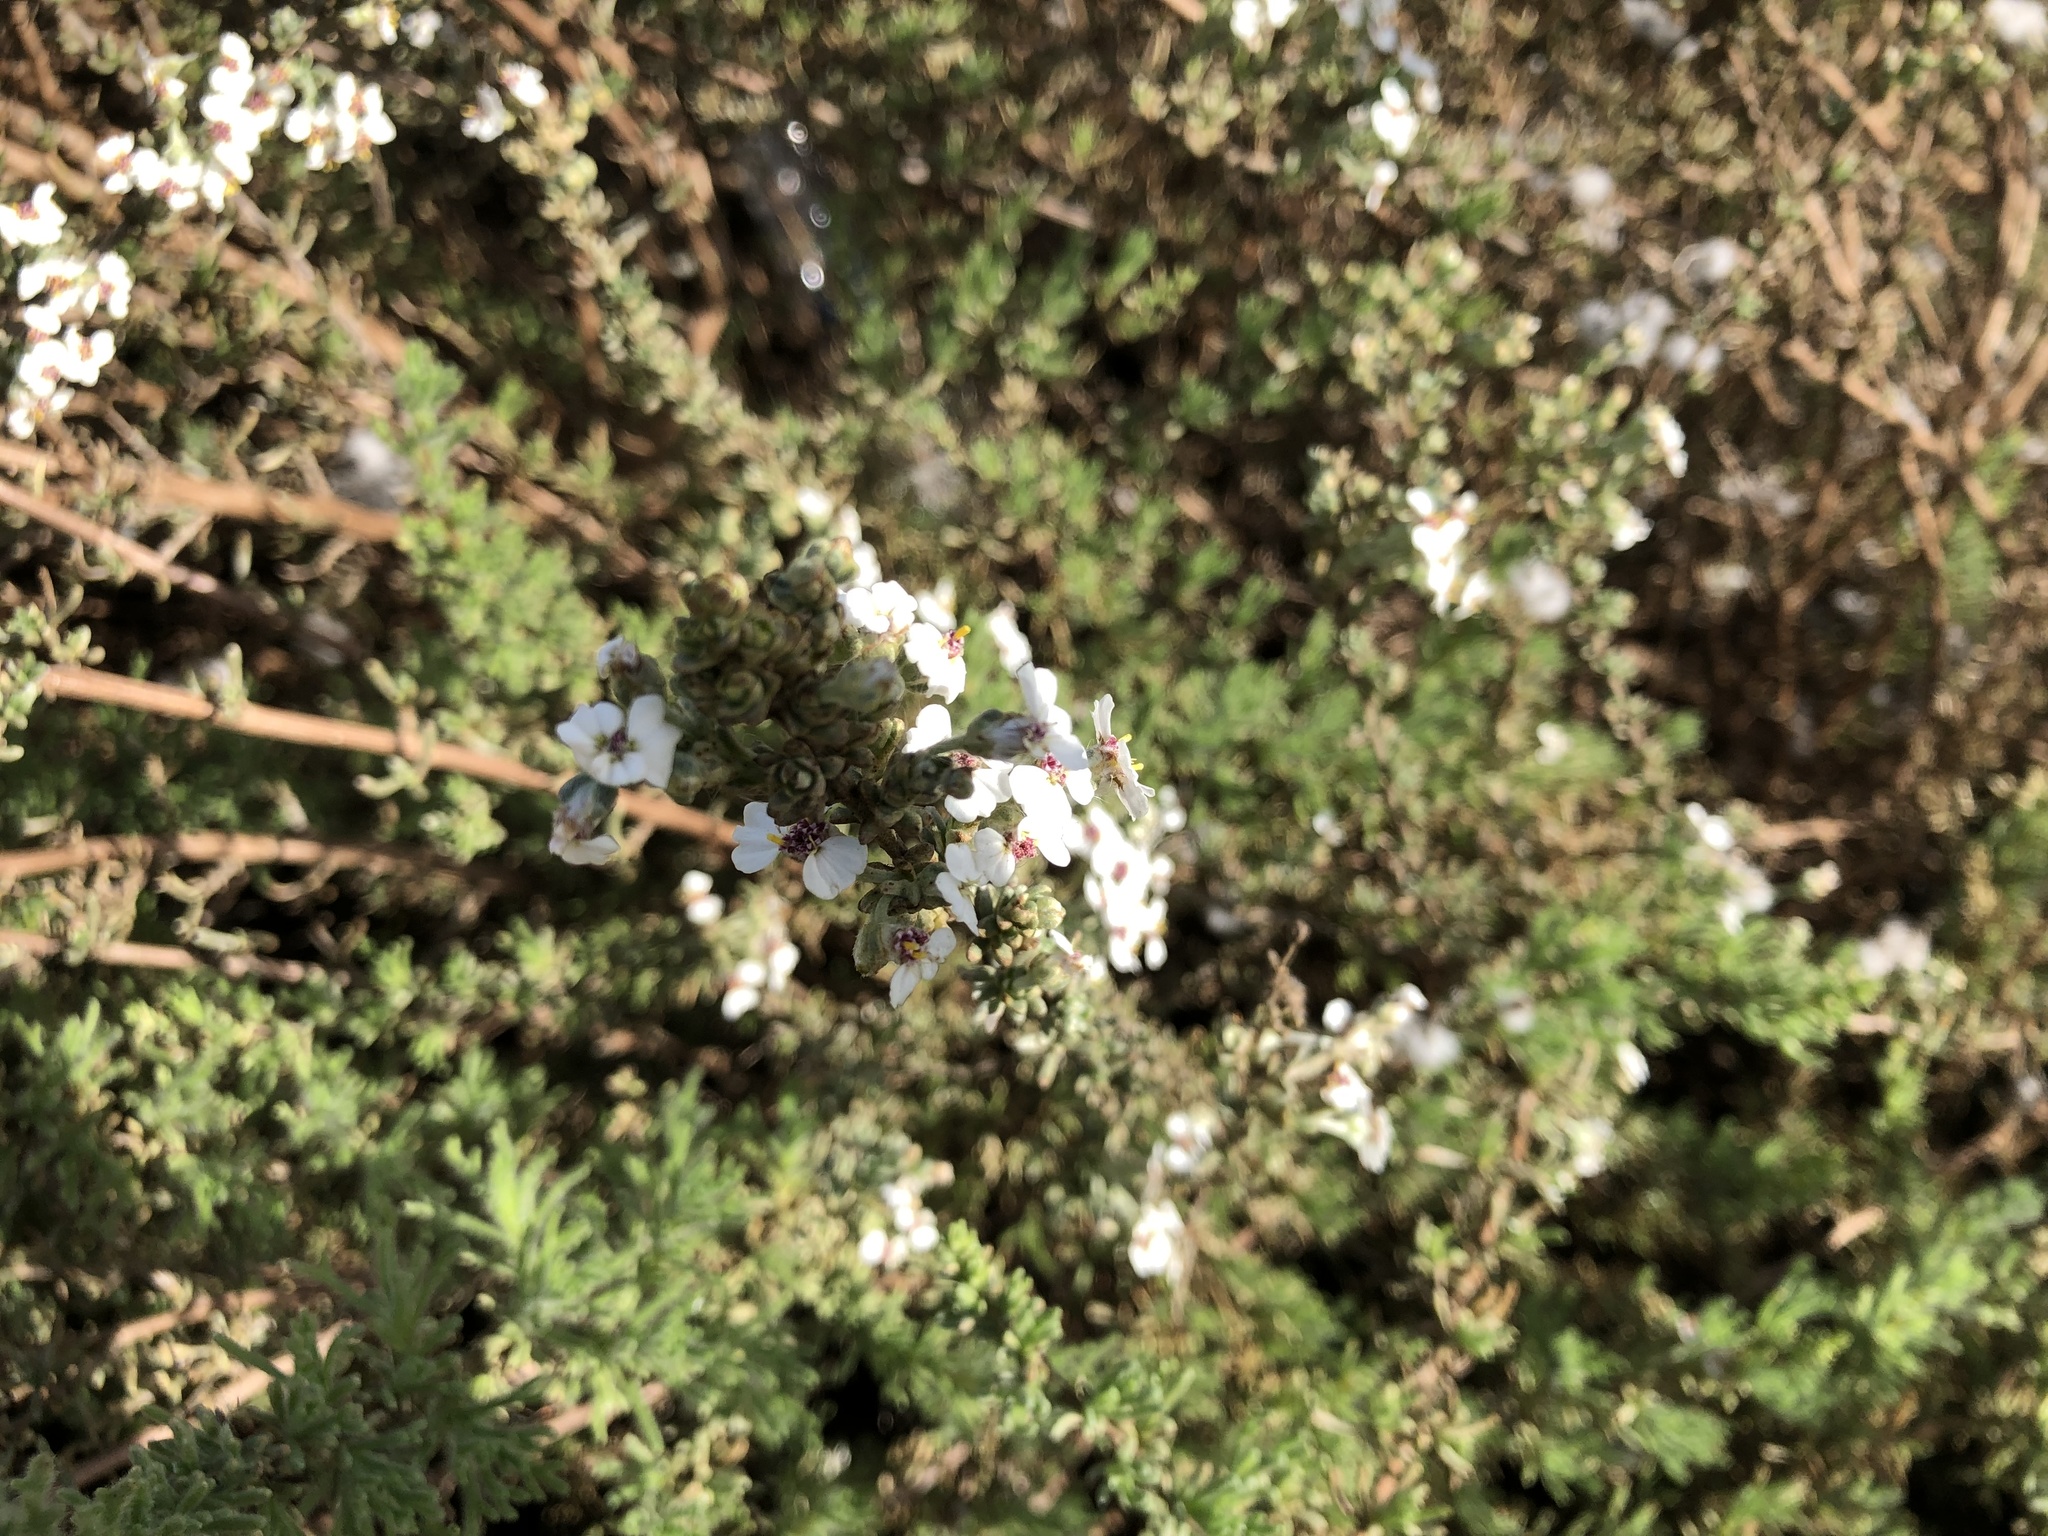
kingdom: Plantae
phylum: Tracheophyta
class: Magnoliopsida
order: Asterales
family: Asteraceae
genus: Eriocephalus
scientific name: Eriocephalus africanus
